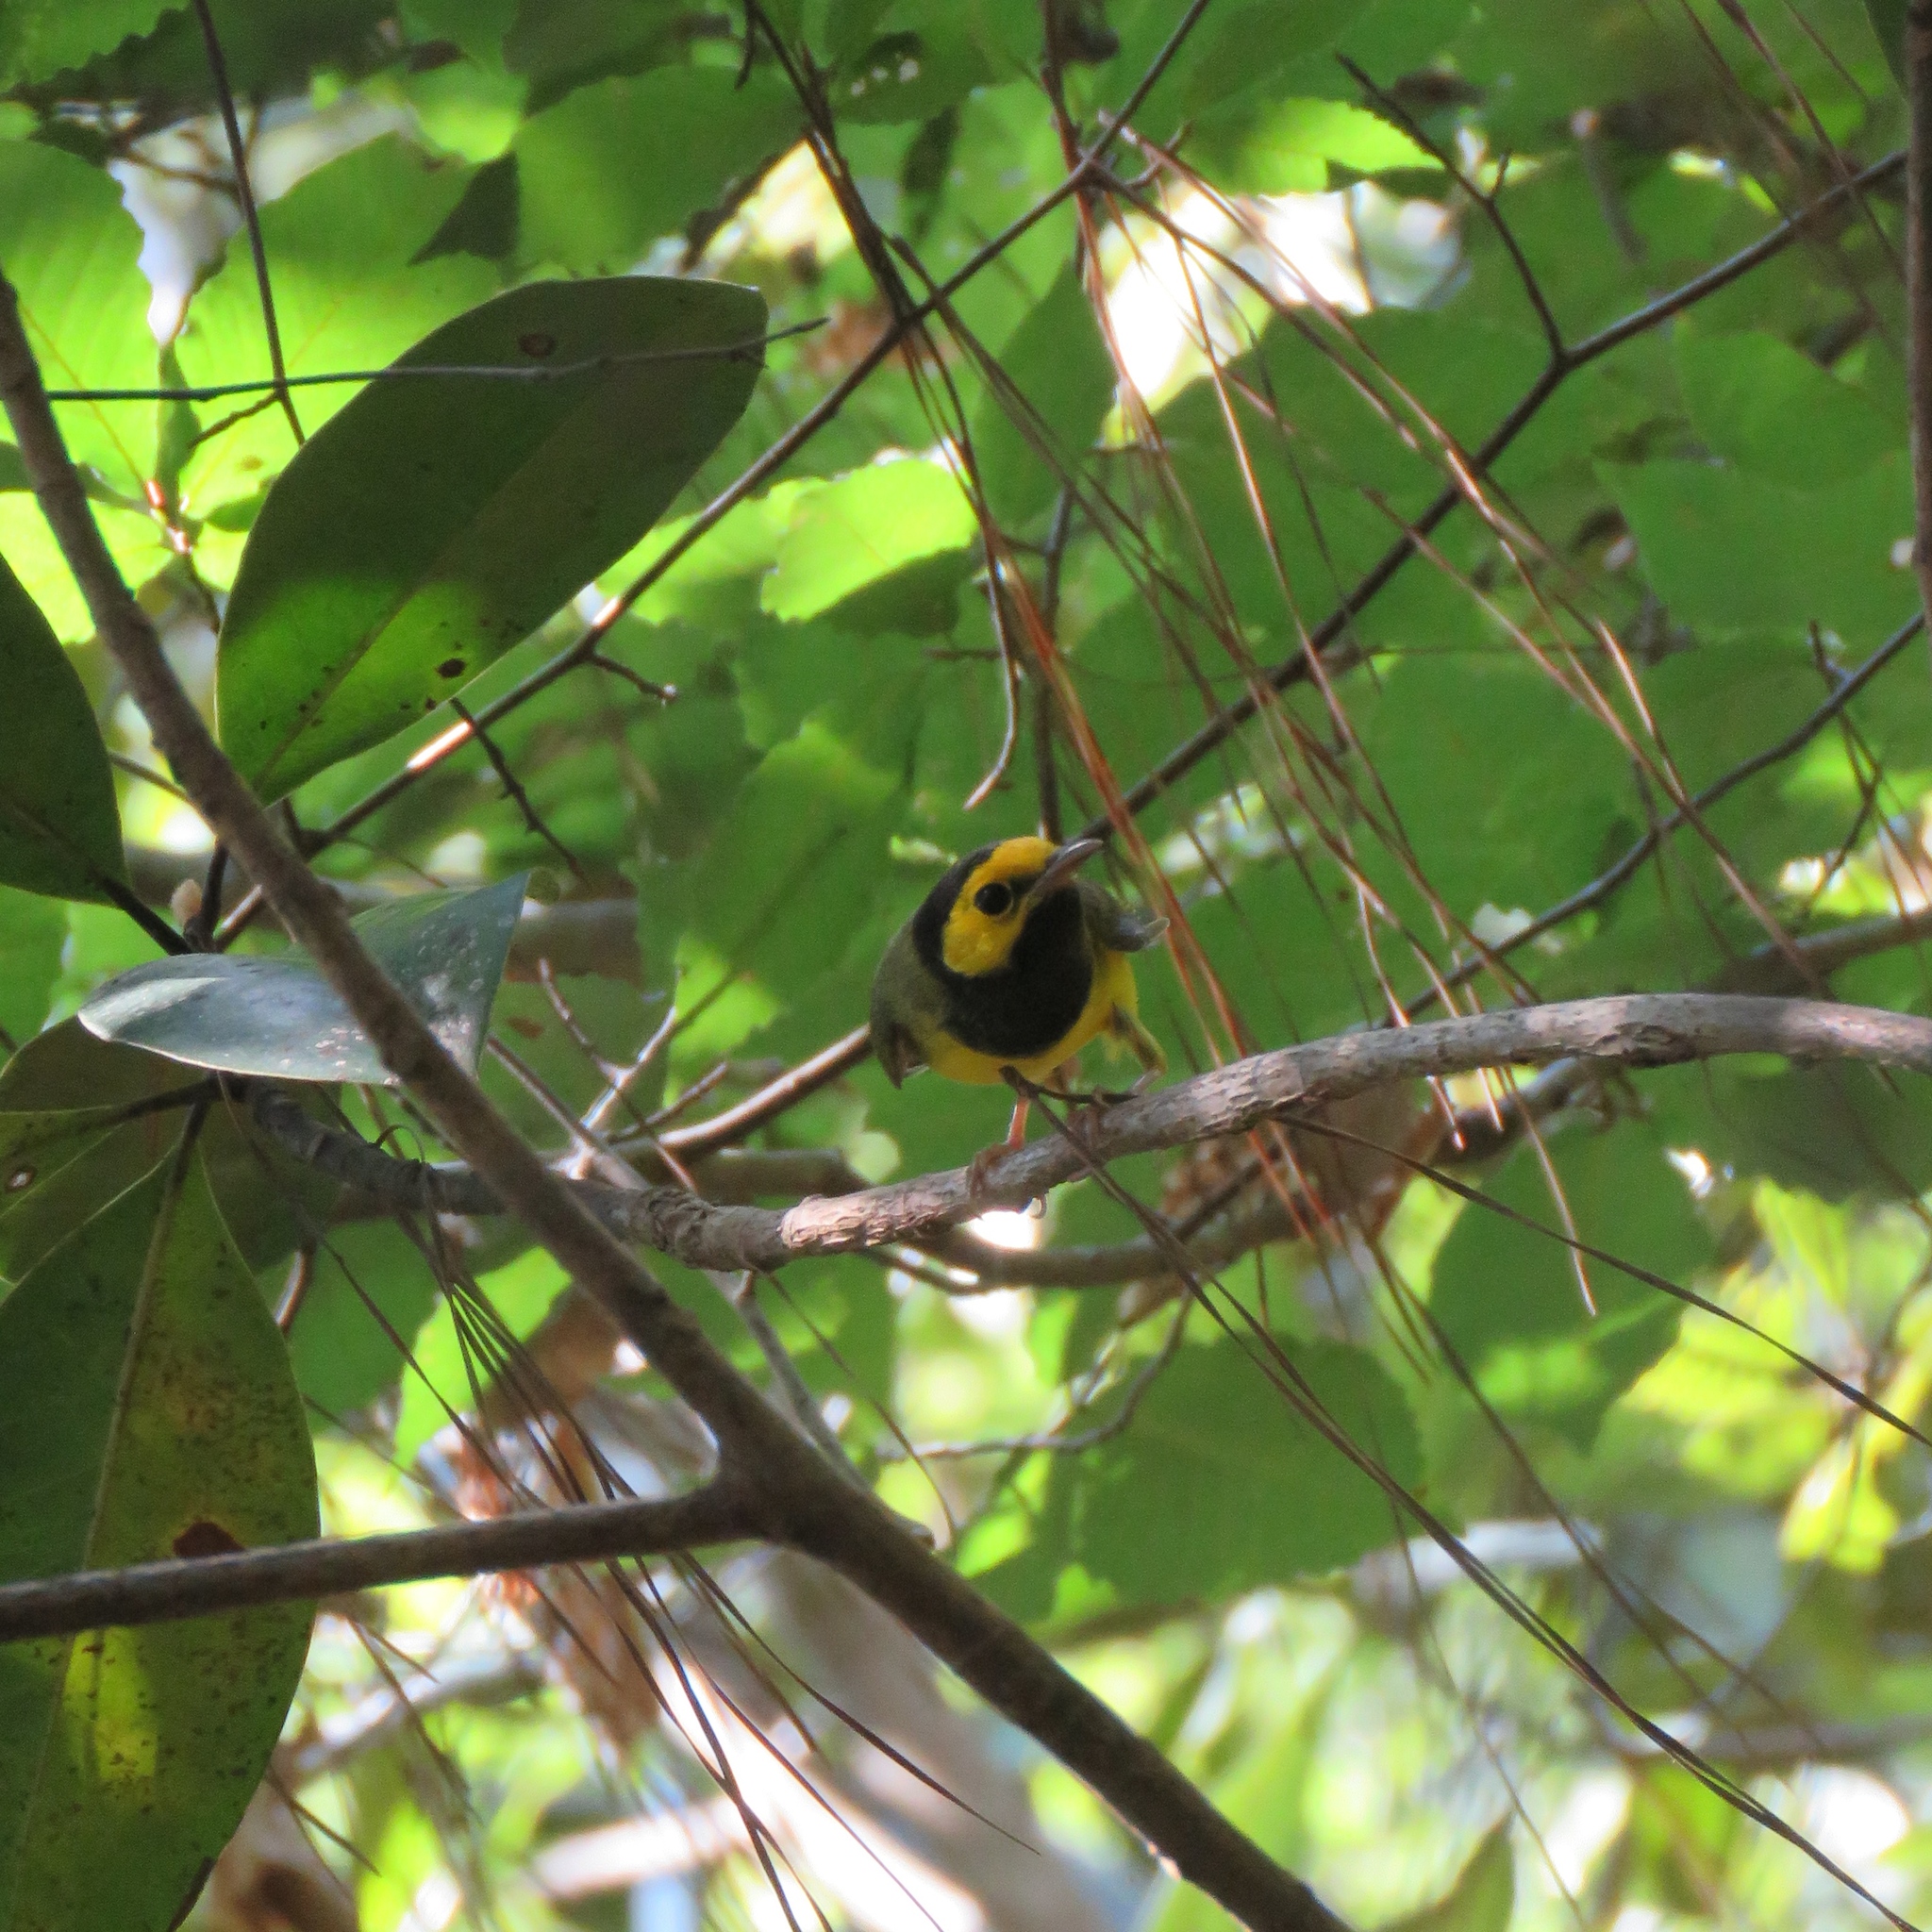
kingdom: Animalia
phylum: Chordata
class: Aves
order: Passeriformes
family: Parulidae
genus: Setophaga
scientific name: Setophaga citrina
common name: Hooded warbler
